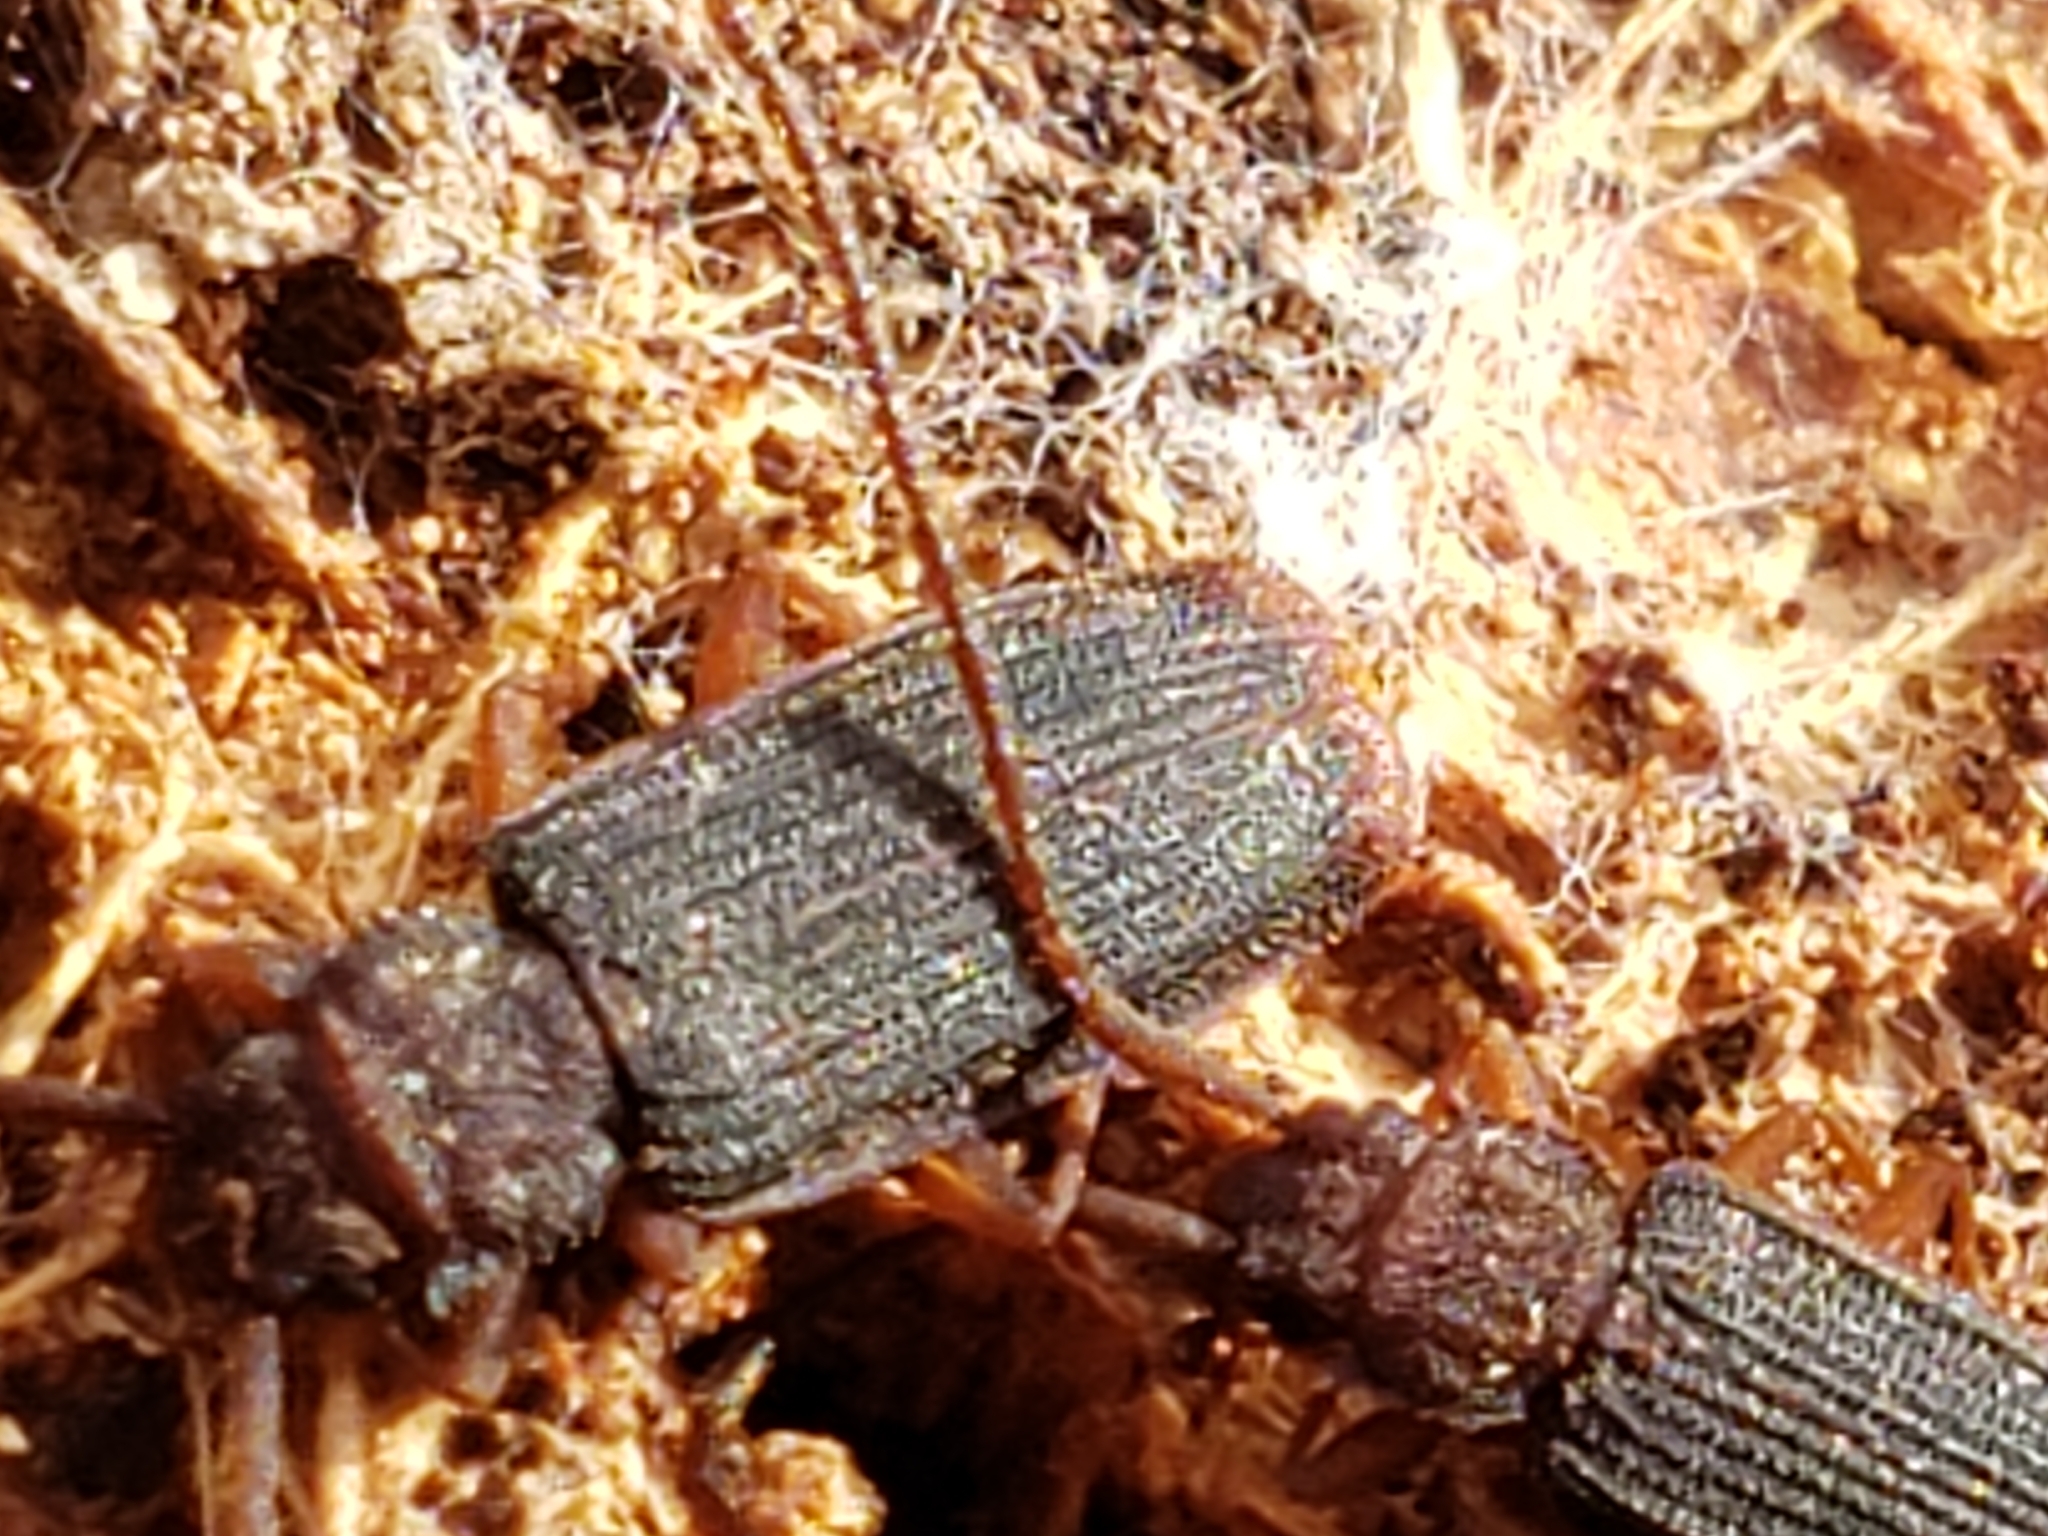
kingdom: Animalia
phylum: Arthropoda
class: Insecta
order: Coleoptera
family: Silvanidae
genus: Uleiota
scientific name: Uleiota dubia
